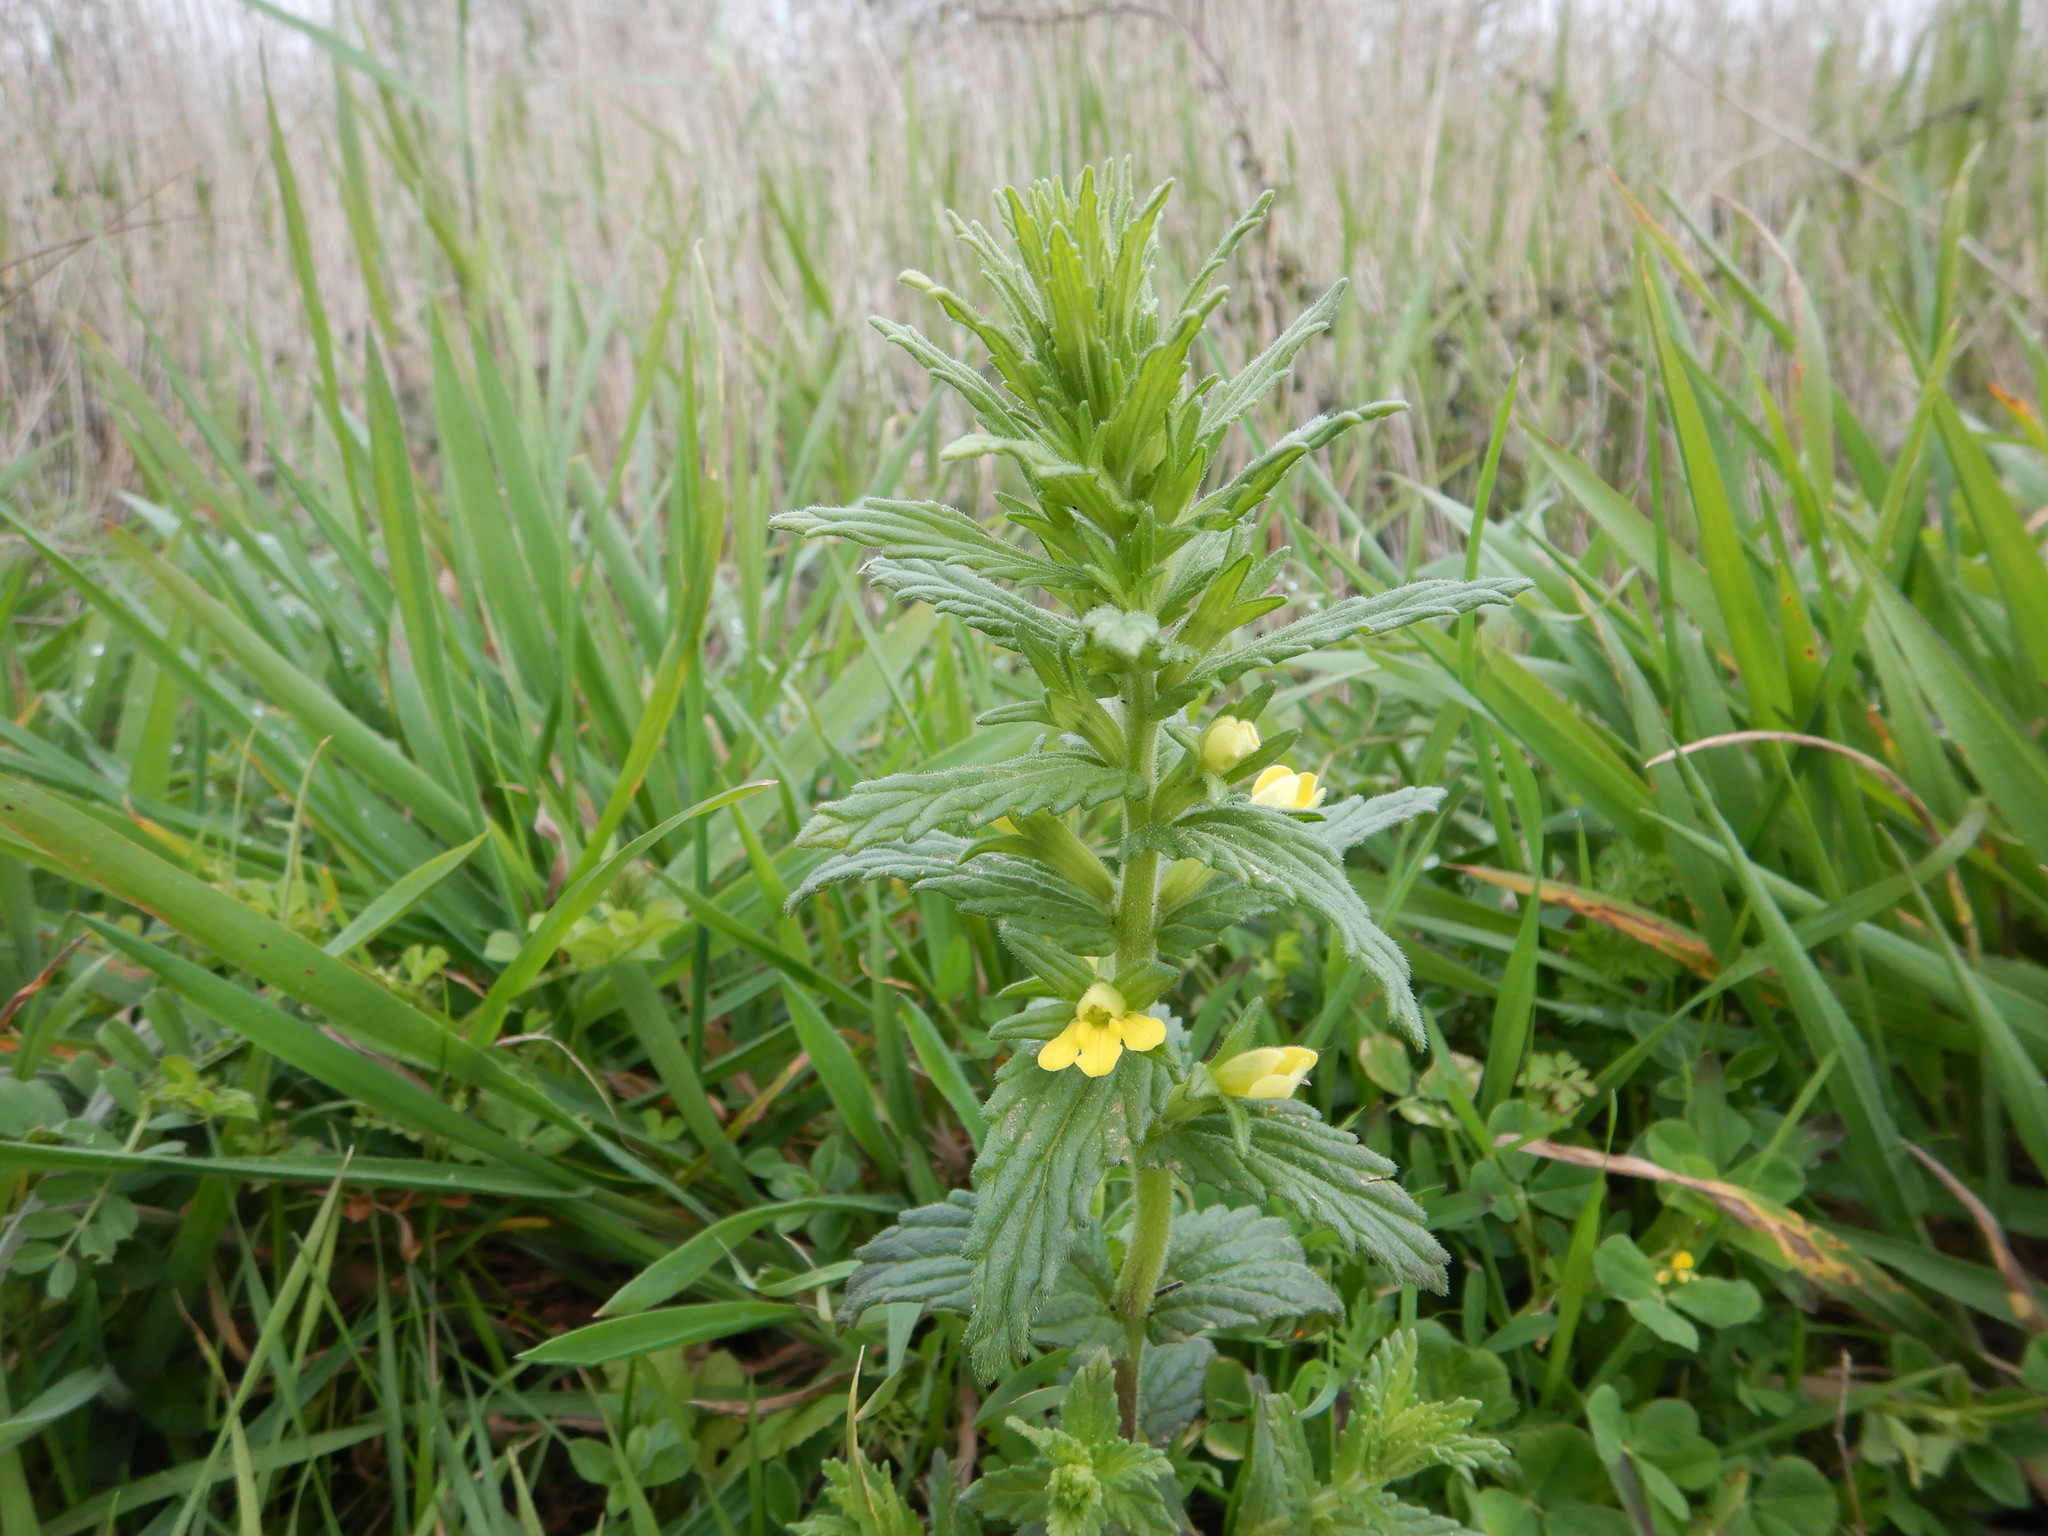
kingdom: Plantae
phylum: Tracheophyta
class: Magnoliopsida
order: Lamiales
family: Orobanchaceae
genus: Bellardia
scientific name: Bellardia viscosa
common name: Sticky parentucellia
